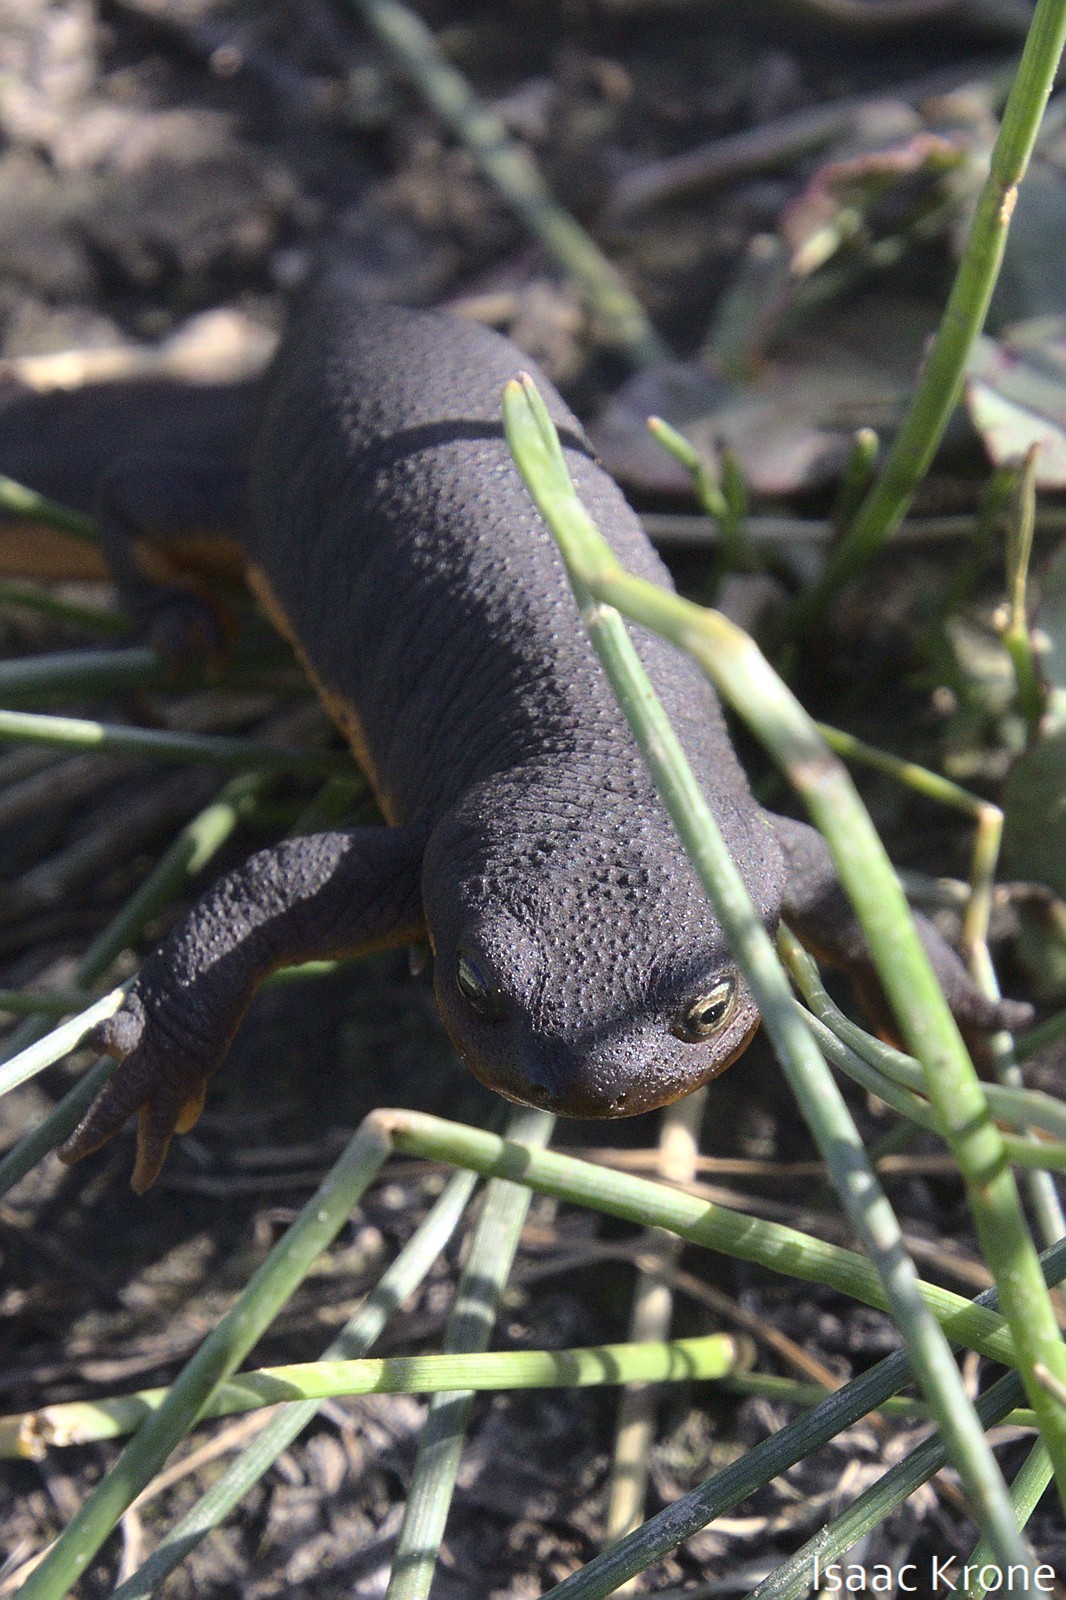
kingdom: Animalia
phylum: Chordata
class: Amphibia
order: Caudata
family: Salamandridae
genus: Taricha
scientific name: Taricha granulosa
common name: Roughskin newt
